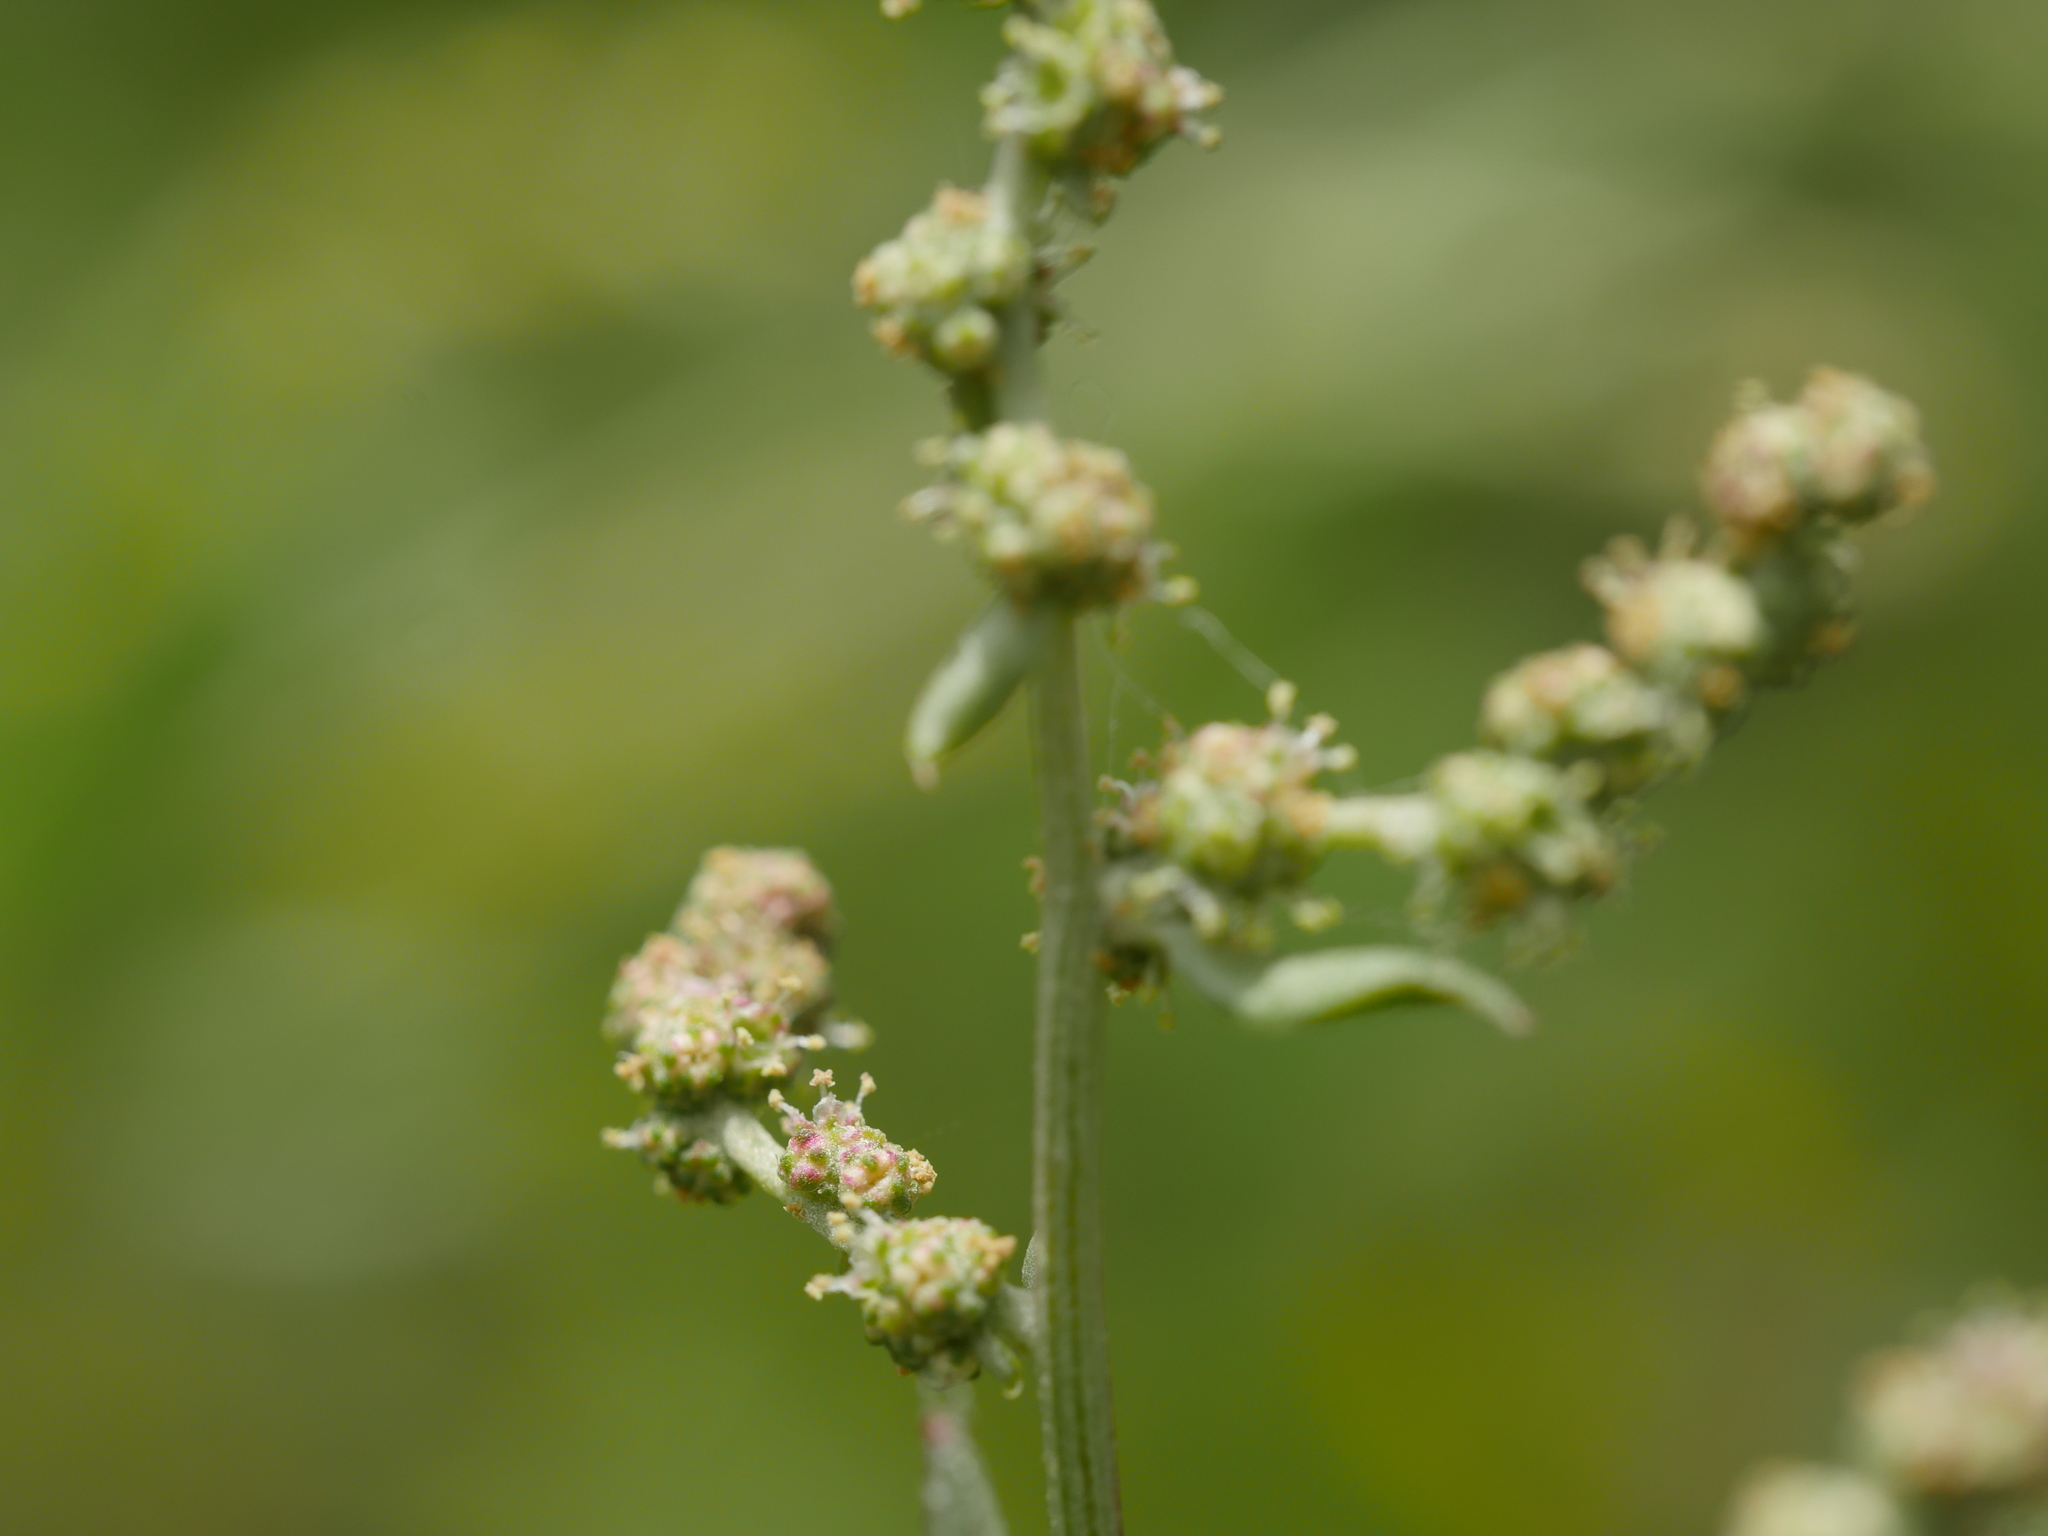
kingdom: Plantae
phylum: Tracheophyta
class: Magnoliopsida
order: Caryophyllales
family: Amaranthaceae
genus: Atriplex
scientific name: Atriplex prostrata
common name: Spear-leaved orache
